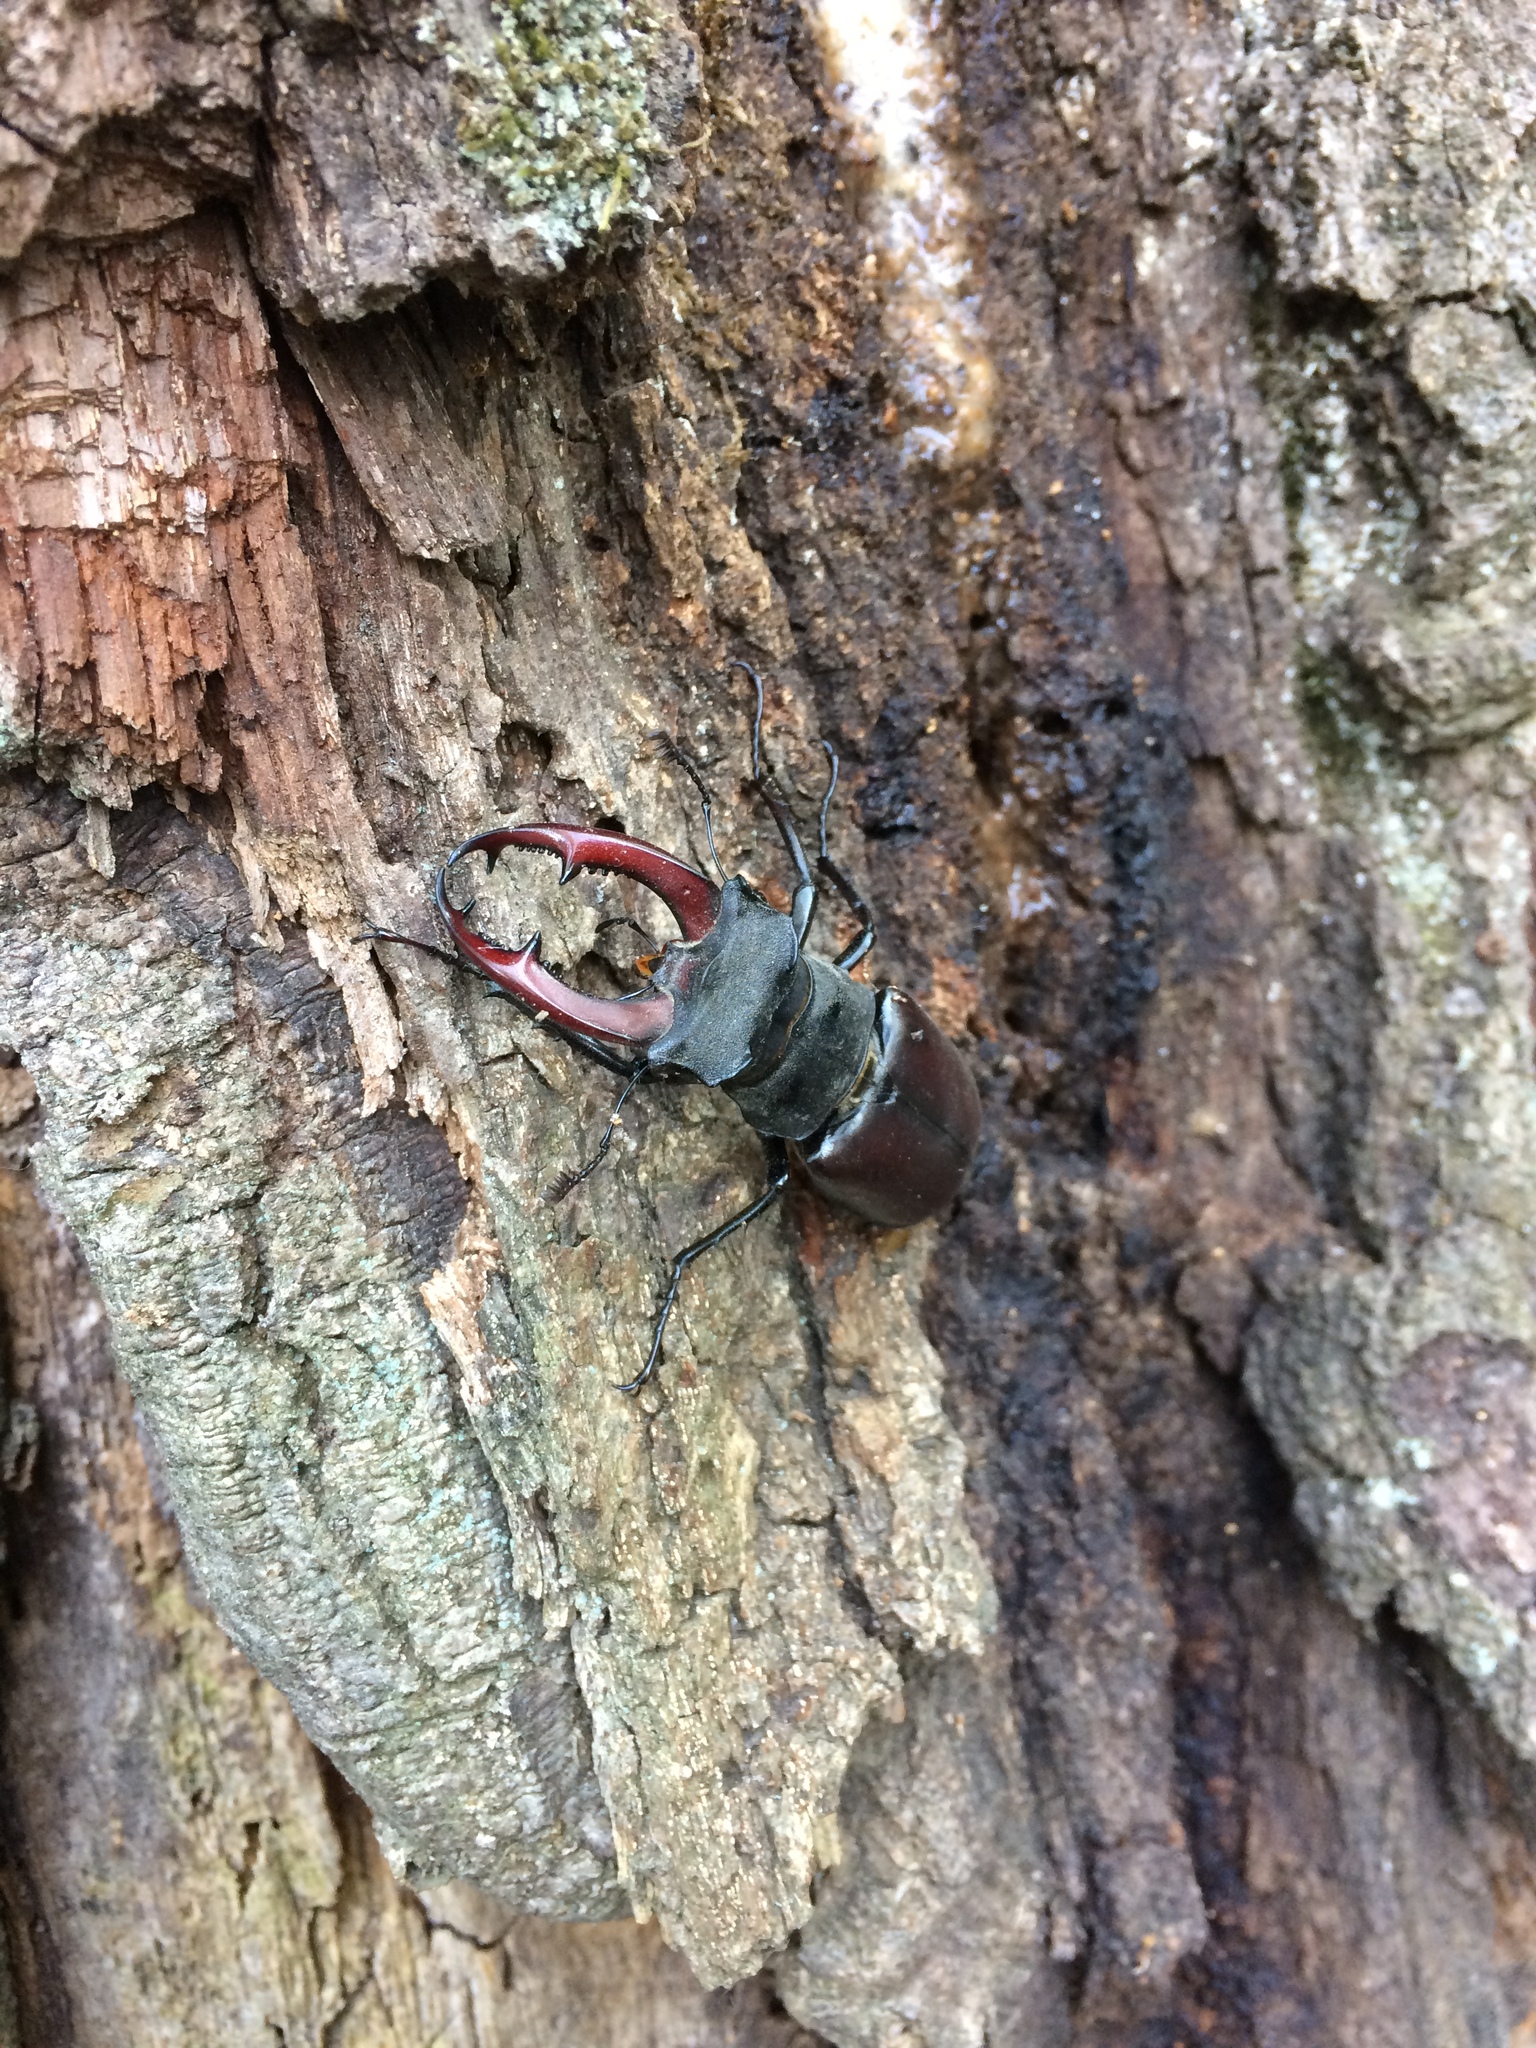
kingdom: Animalia
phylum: Arthropoda
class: Insecta
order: Coleoptera
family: Lucanidae
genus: Lucanus
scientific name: Lucanus cervus
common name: Stag beetle
